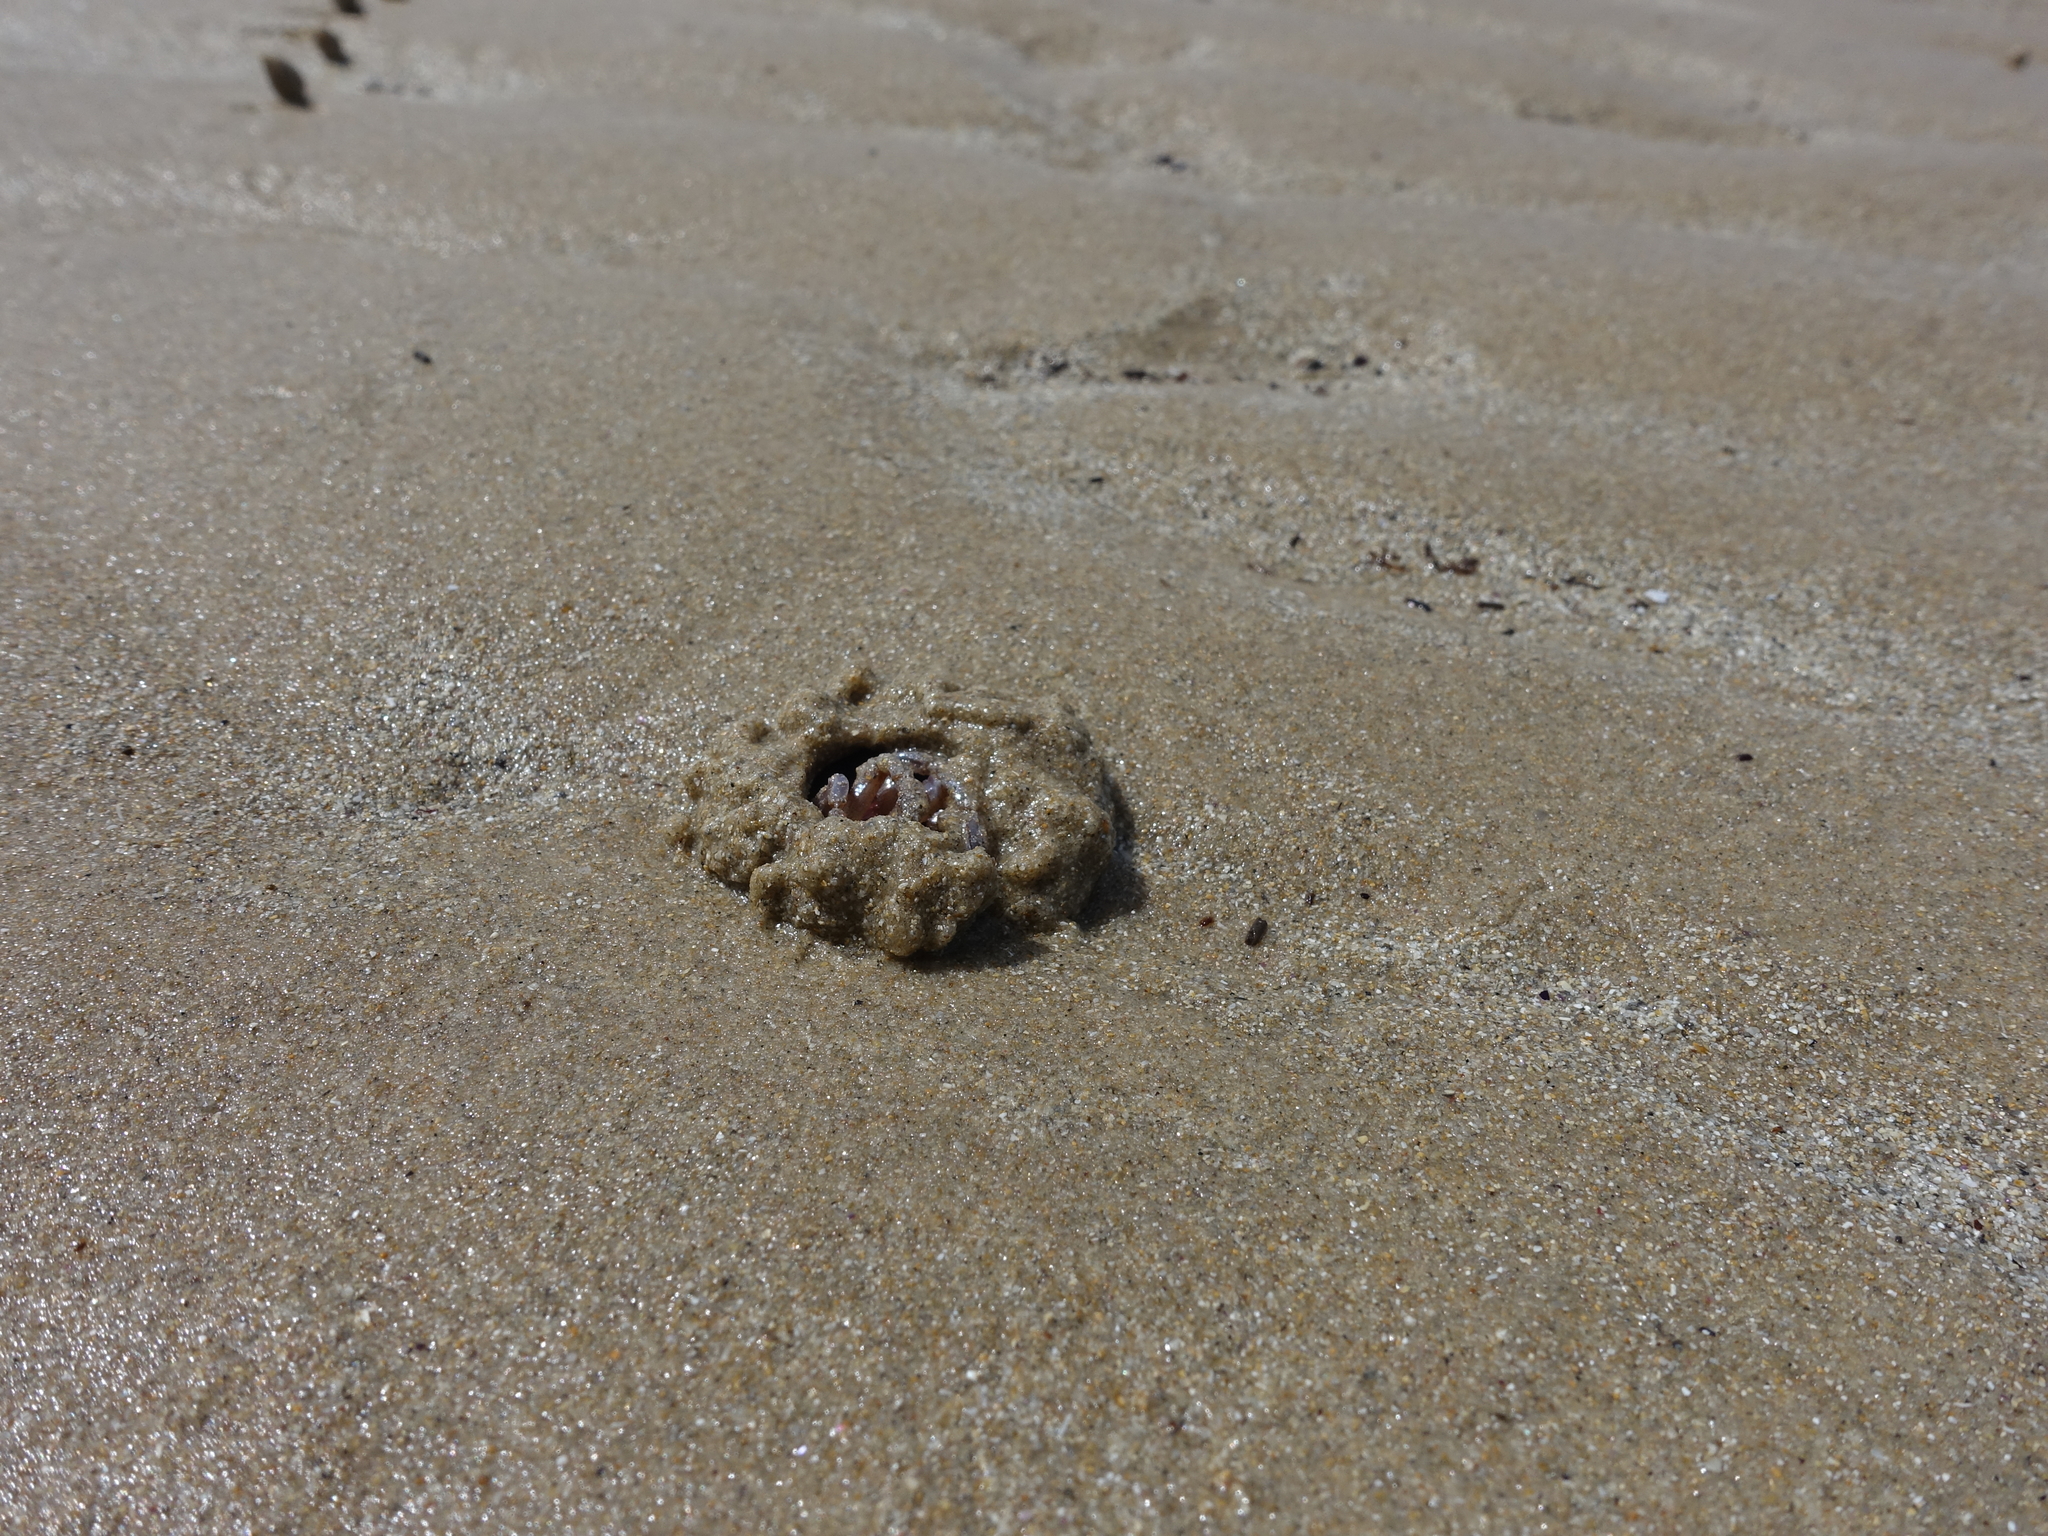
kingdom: Animalia
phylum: Arthropoda
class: Malacostraca
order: Decapoda
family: Mictyridae
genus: Mictyris
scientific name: Mictyris platycheles
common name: Dark blue soldier crab
